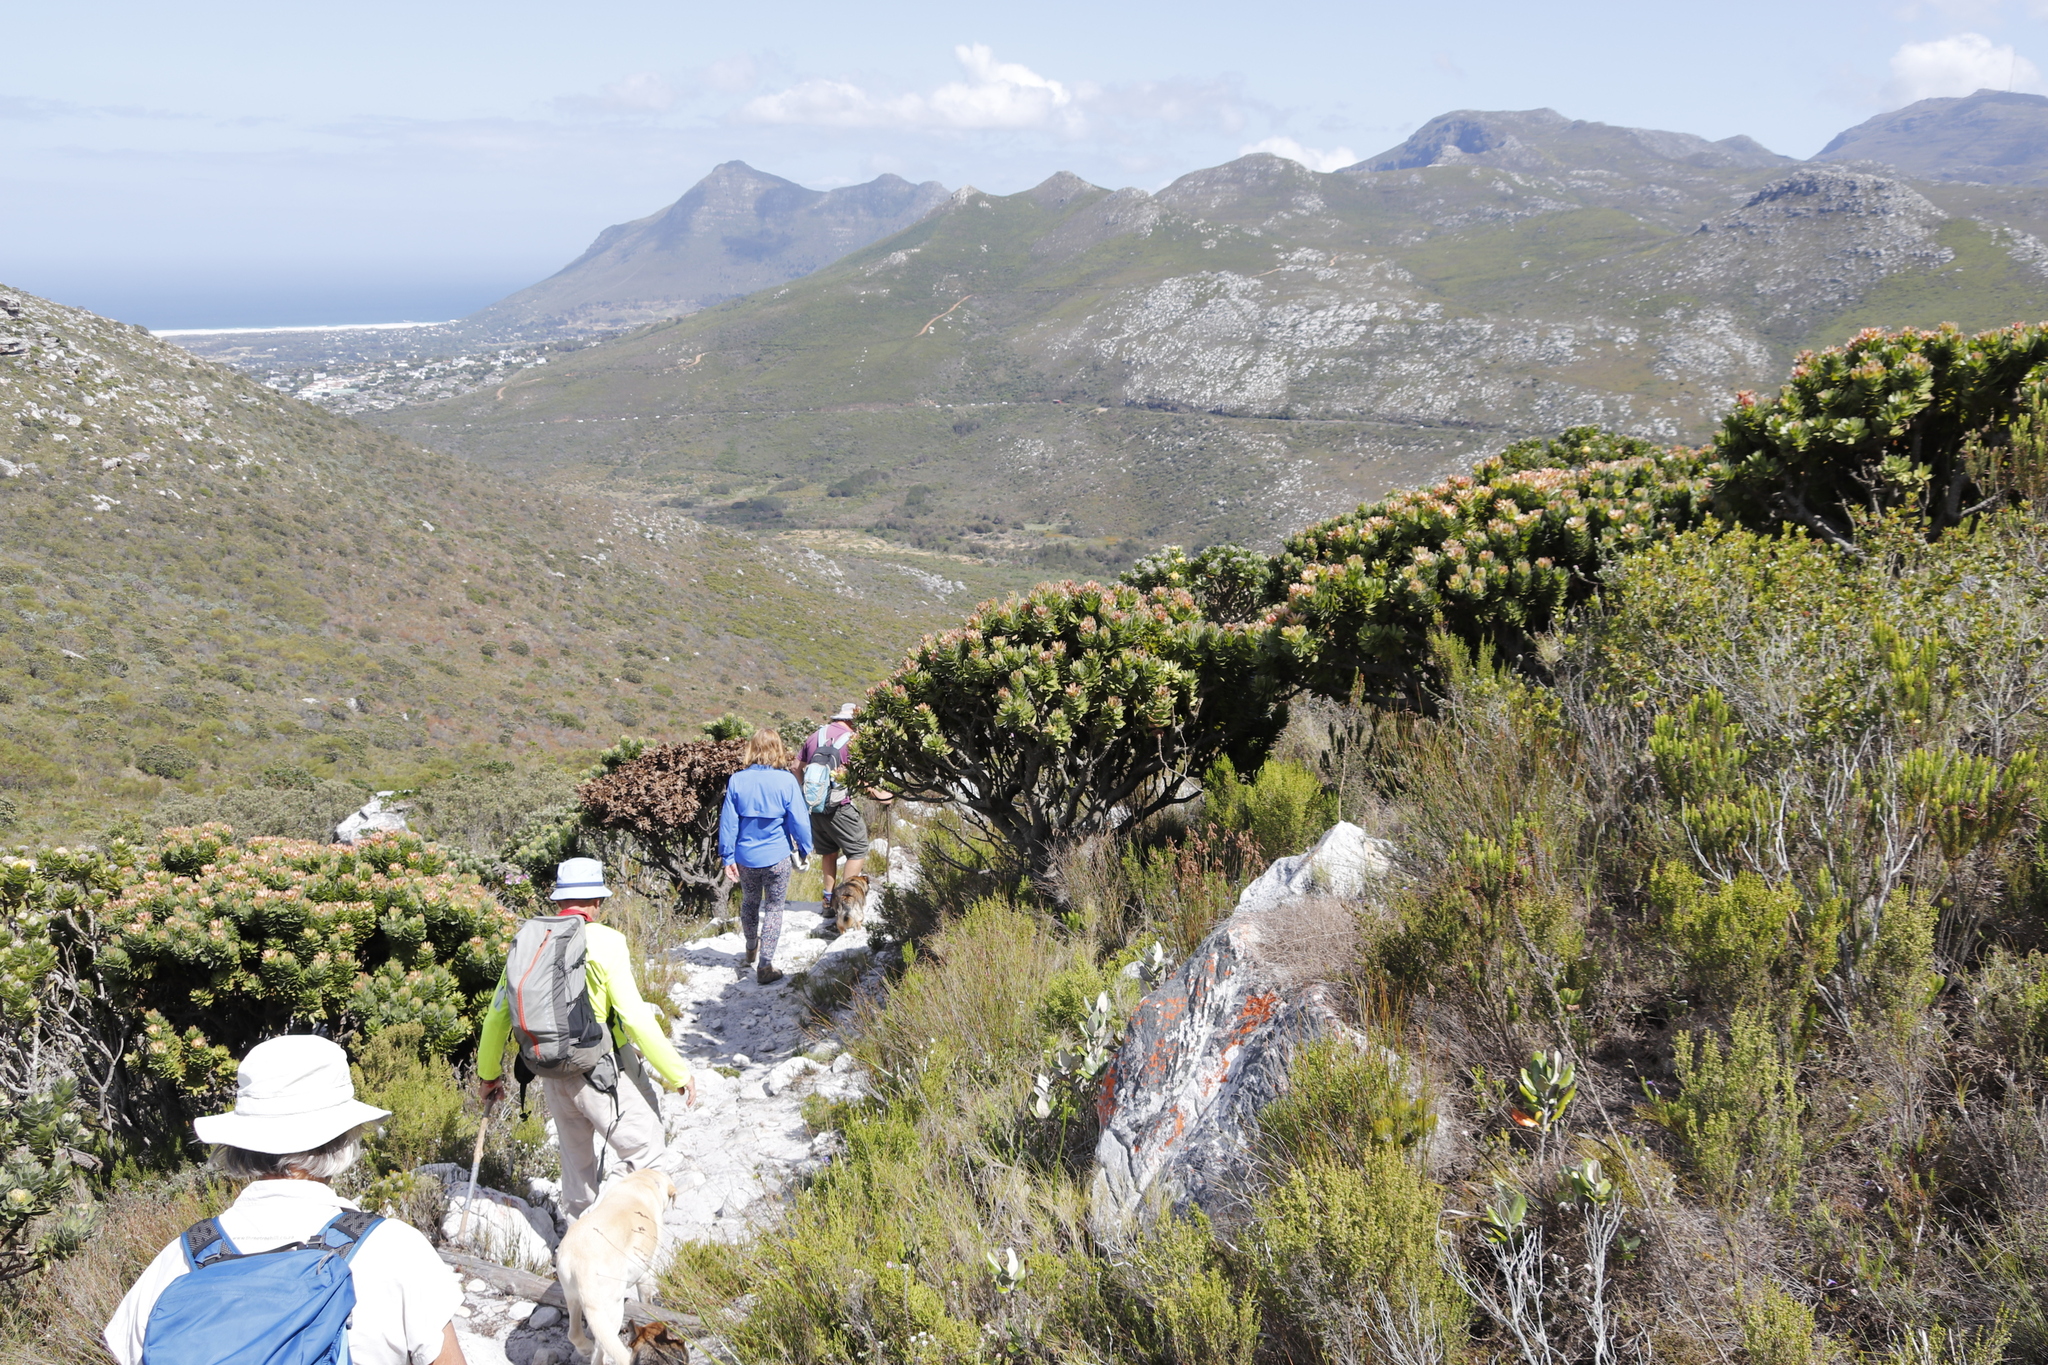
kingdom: Plantae
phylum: Tracheophyta
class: Magnoliopsida
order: Proteales
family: Proteaceae
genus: Mimetes
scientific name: Mimetes fimbriifolius
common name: Fringed bottlebrush
